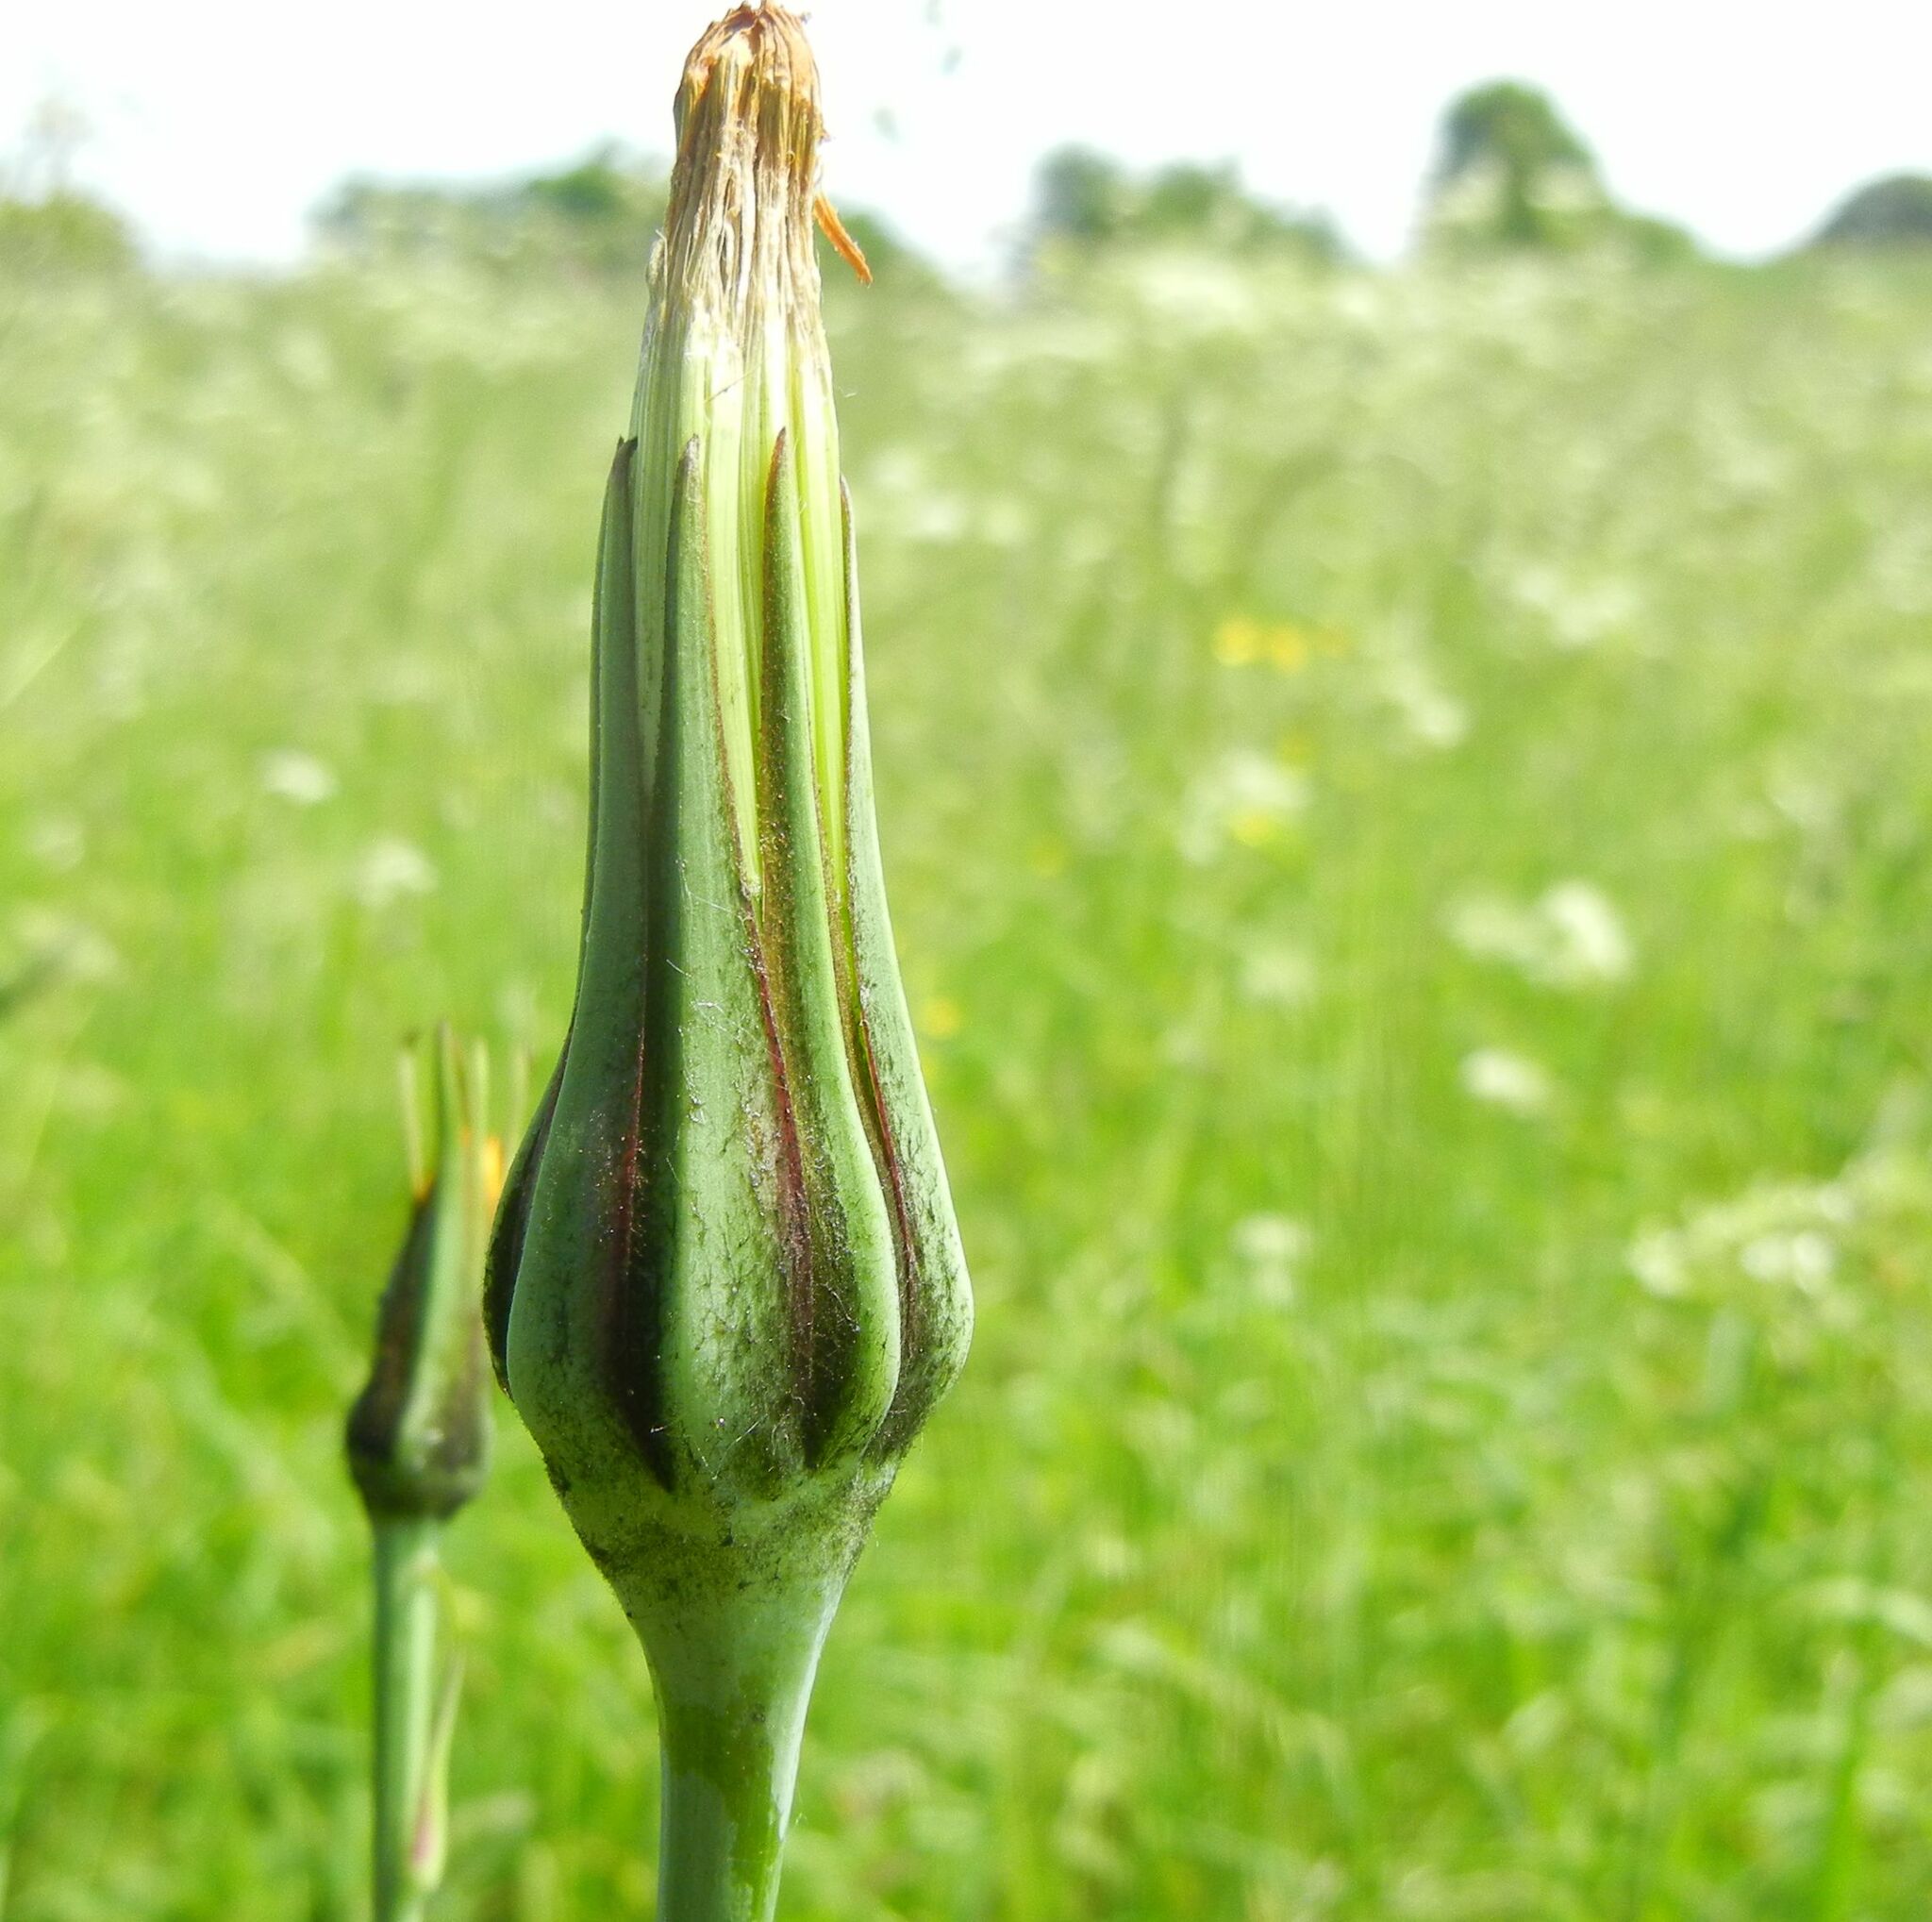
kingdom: Plantae
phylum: Tracheophyta
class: Magnoliopsida
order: Asterales
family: Asteraceae
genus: Tragopogon
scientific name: Tragopogon pratensis
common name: Goat's-beard
